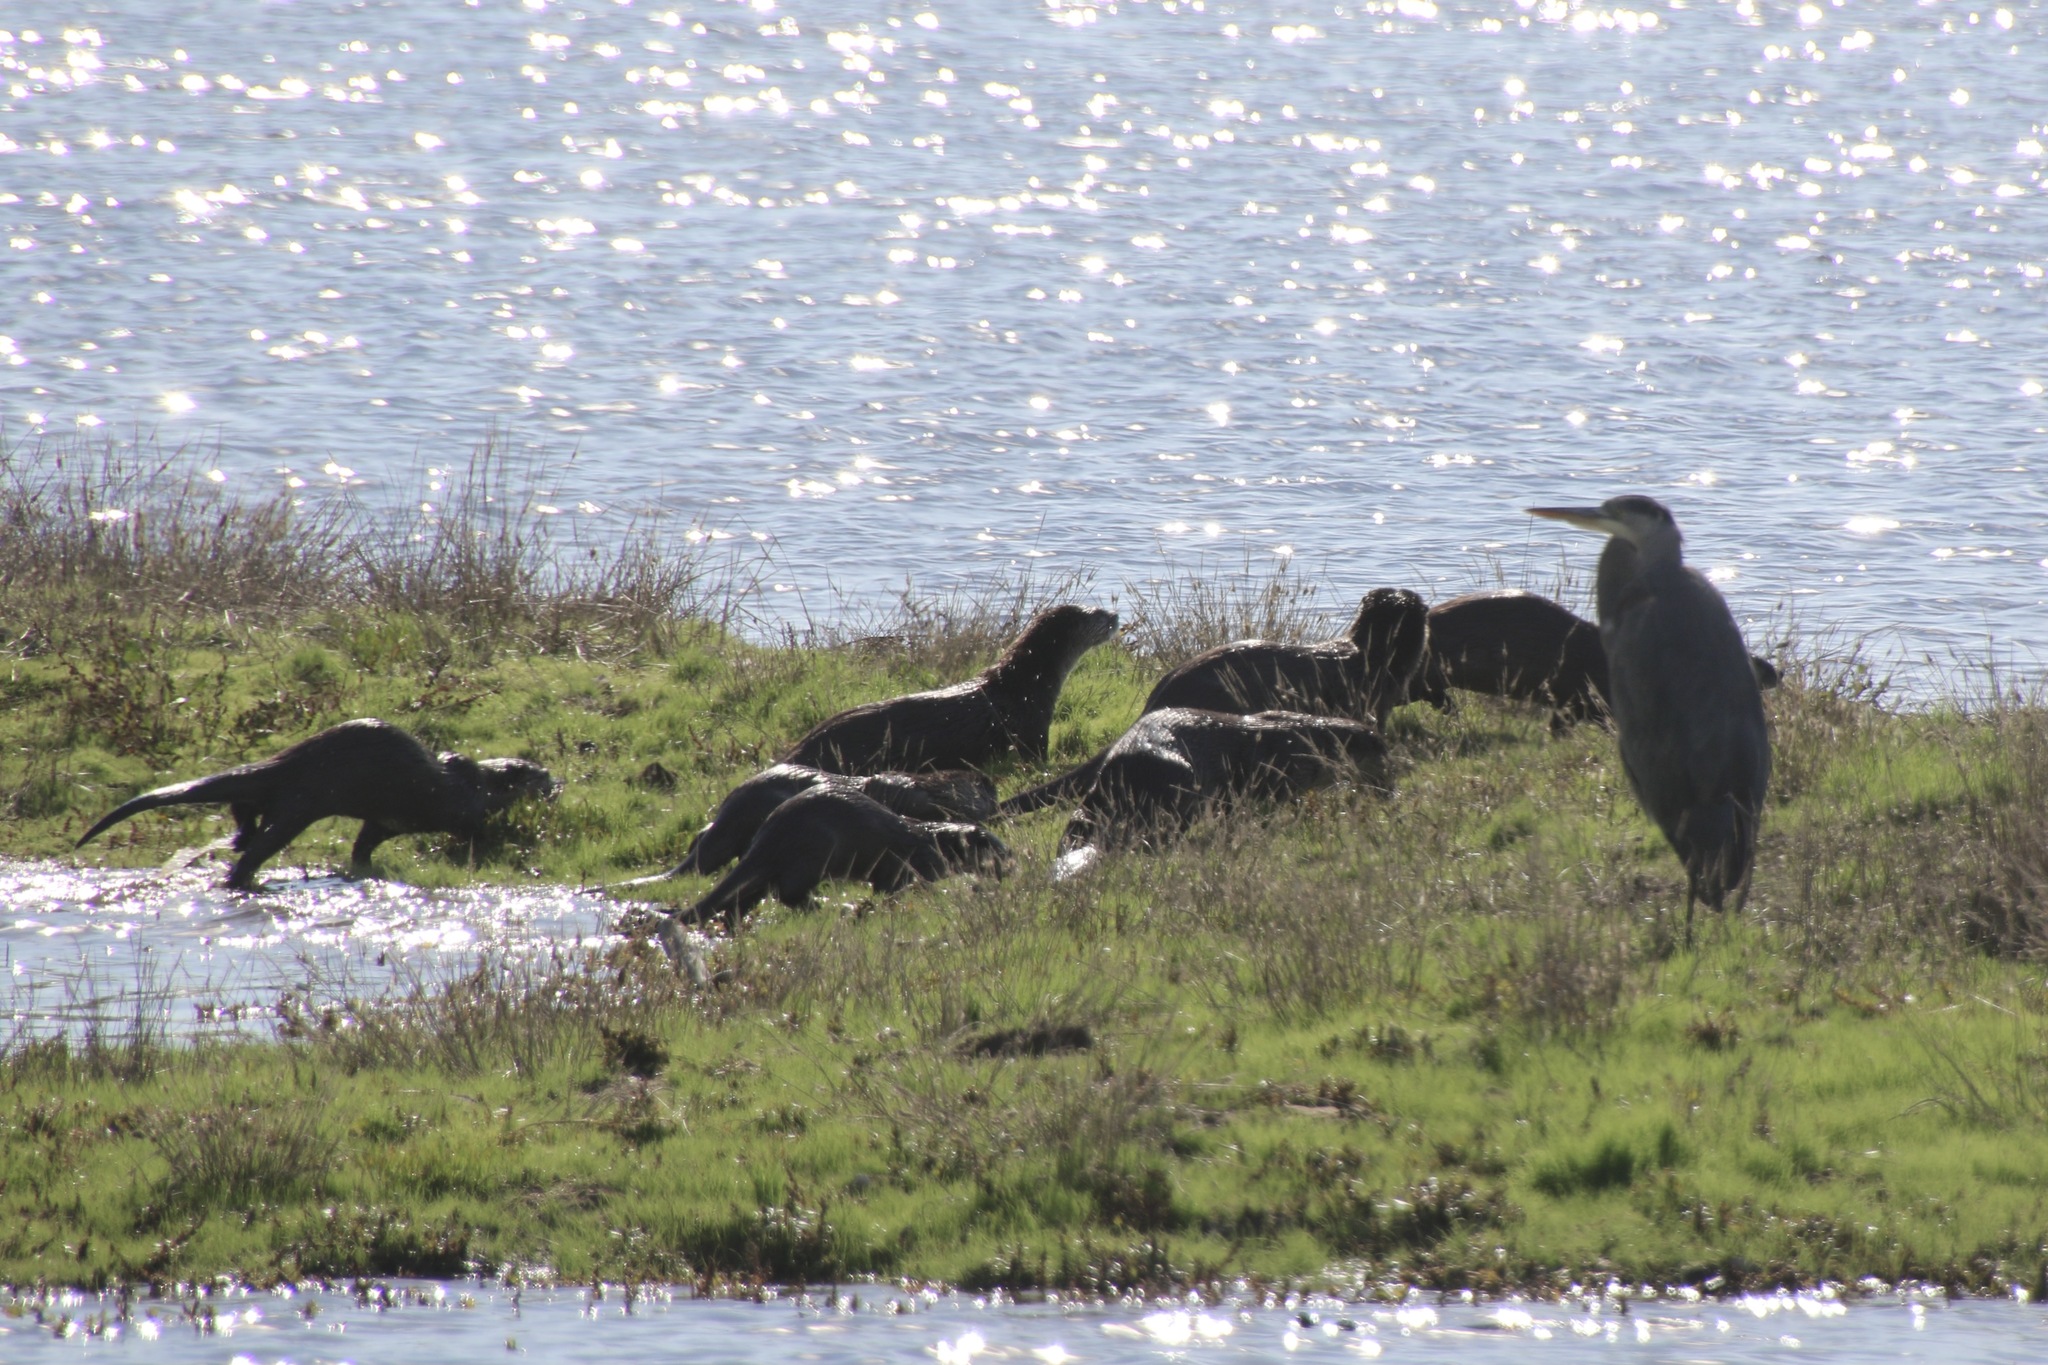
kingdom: Animalia
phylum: Chordata
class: Mammalia
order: Carnivora
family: Mustelidae
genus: Lontra
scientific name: Lontra canadensis
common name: North american river otter
